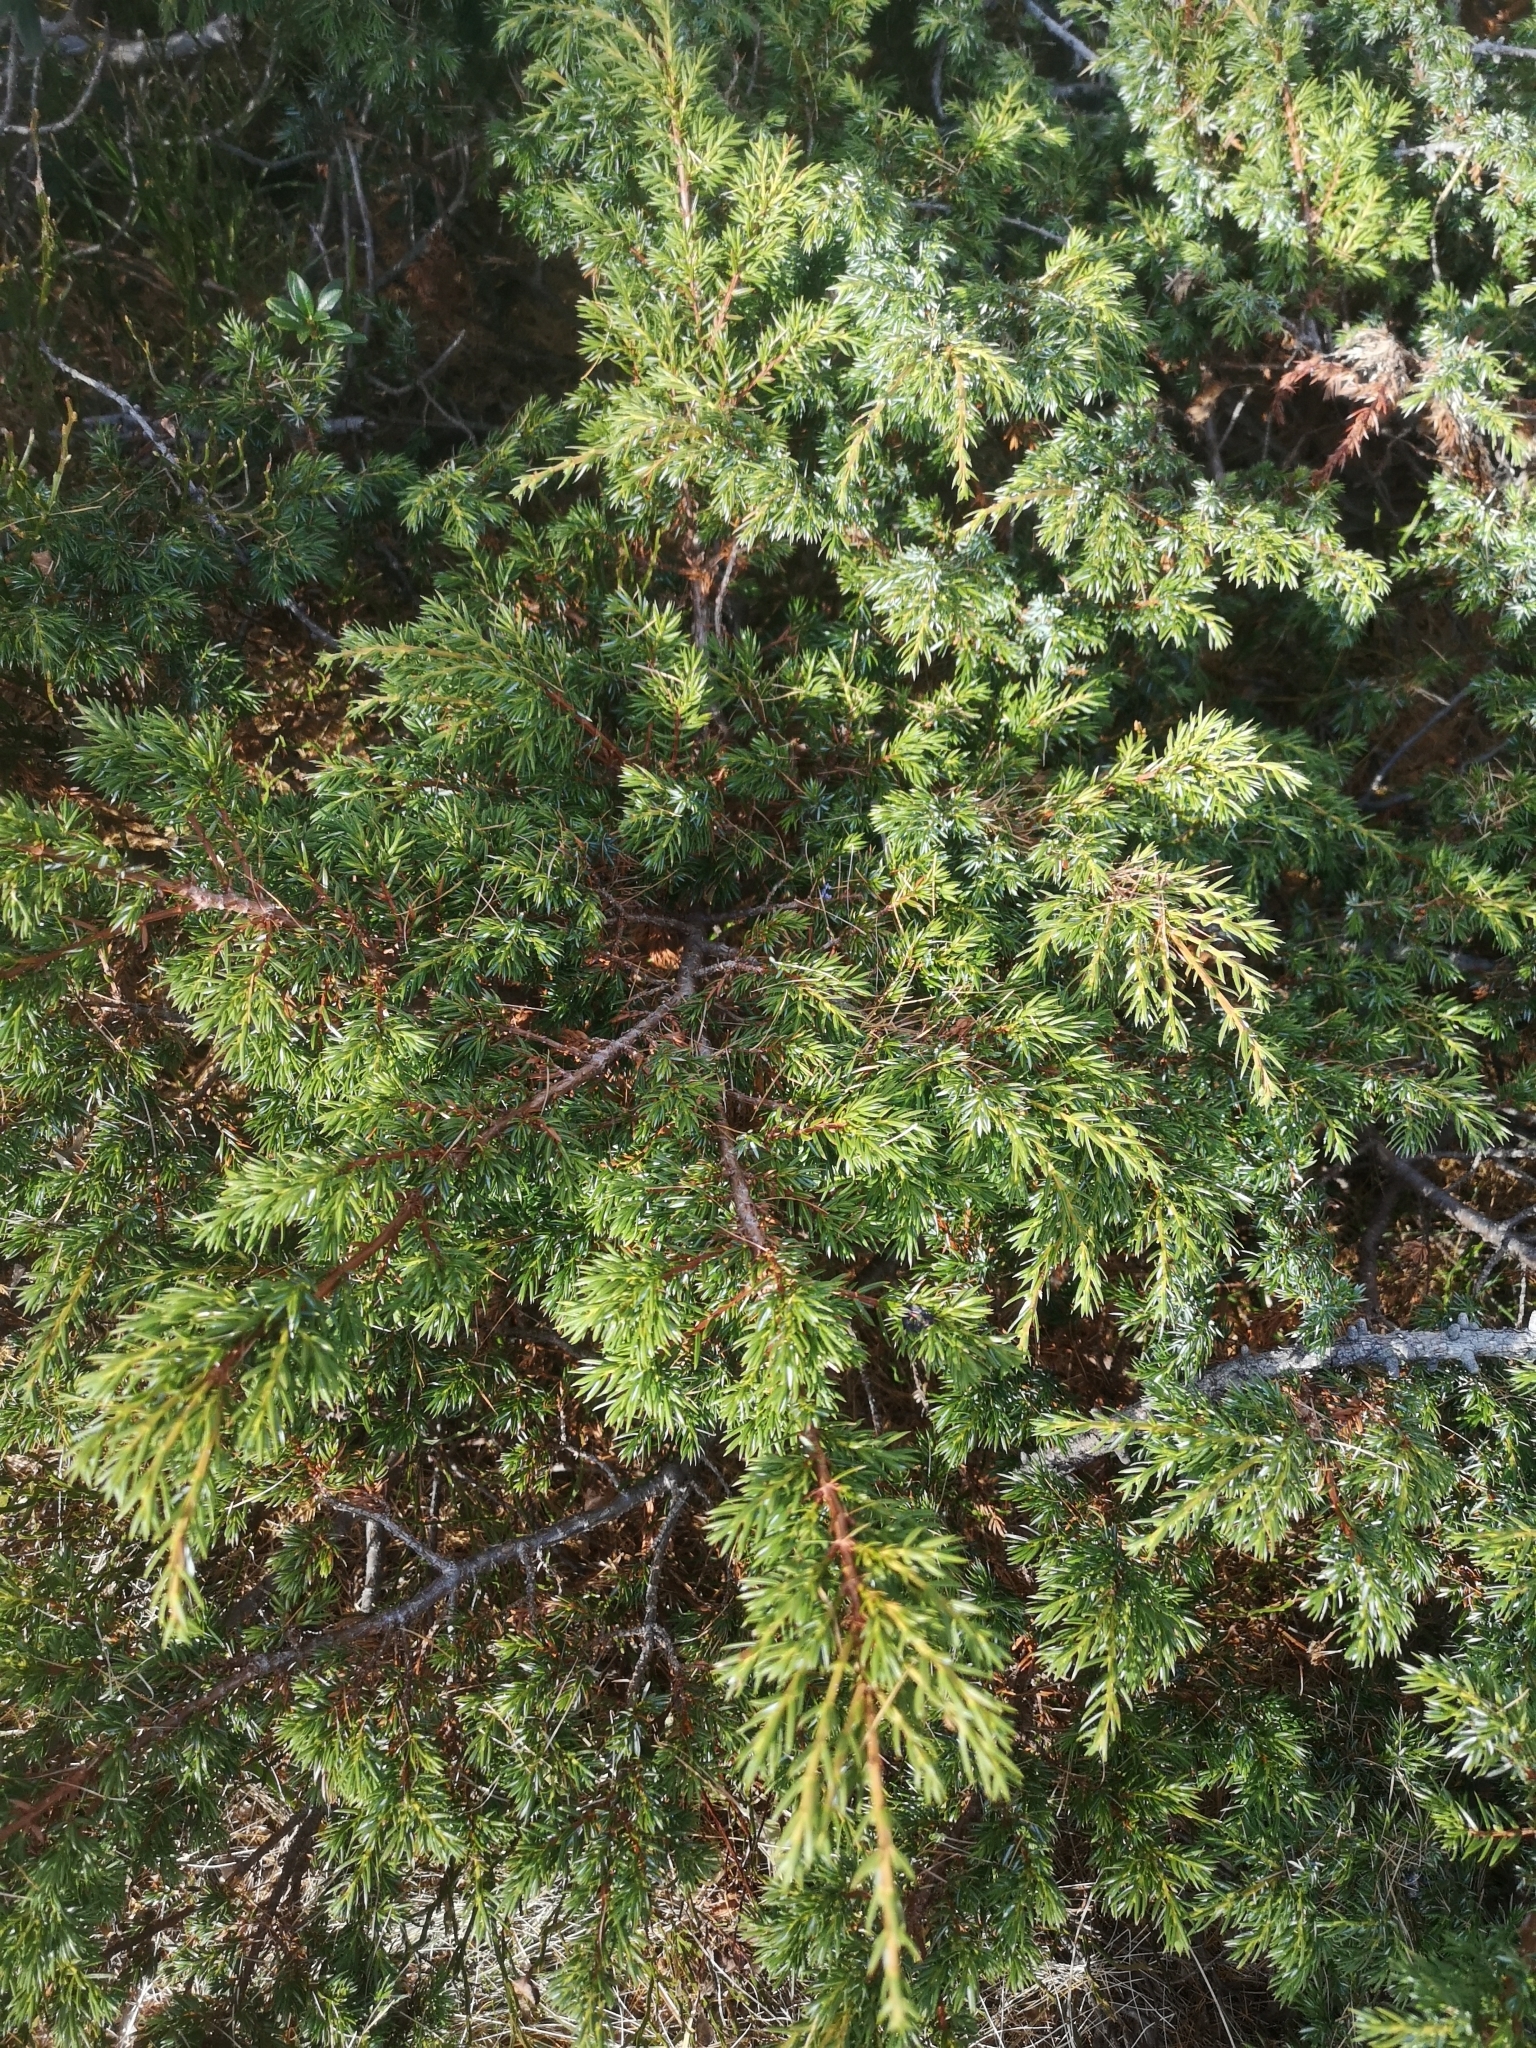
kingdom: Plantae
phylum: Tracheophyta
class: Pinopsida
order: Pinales
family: Cupressaceae
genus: Juniperus
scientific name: Juniperus communis
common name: Common juniper
